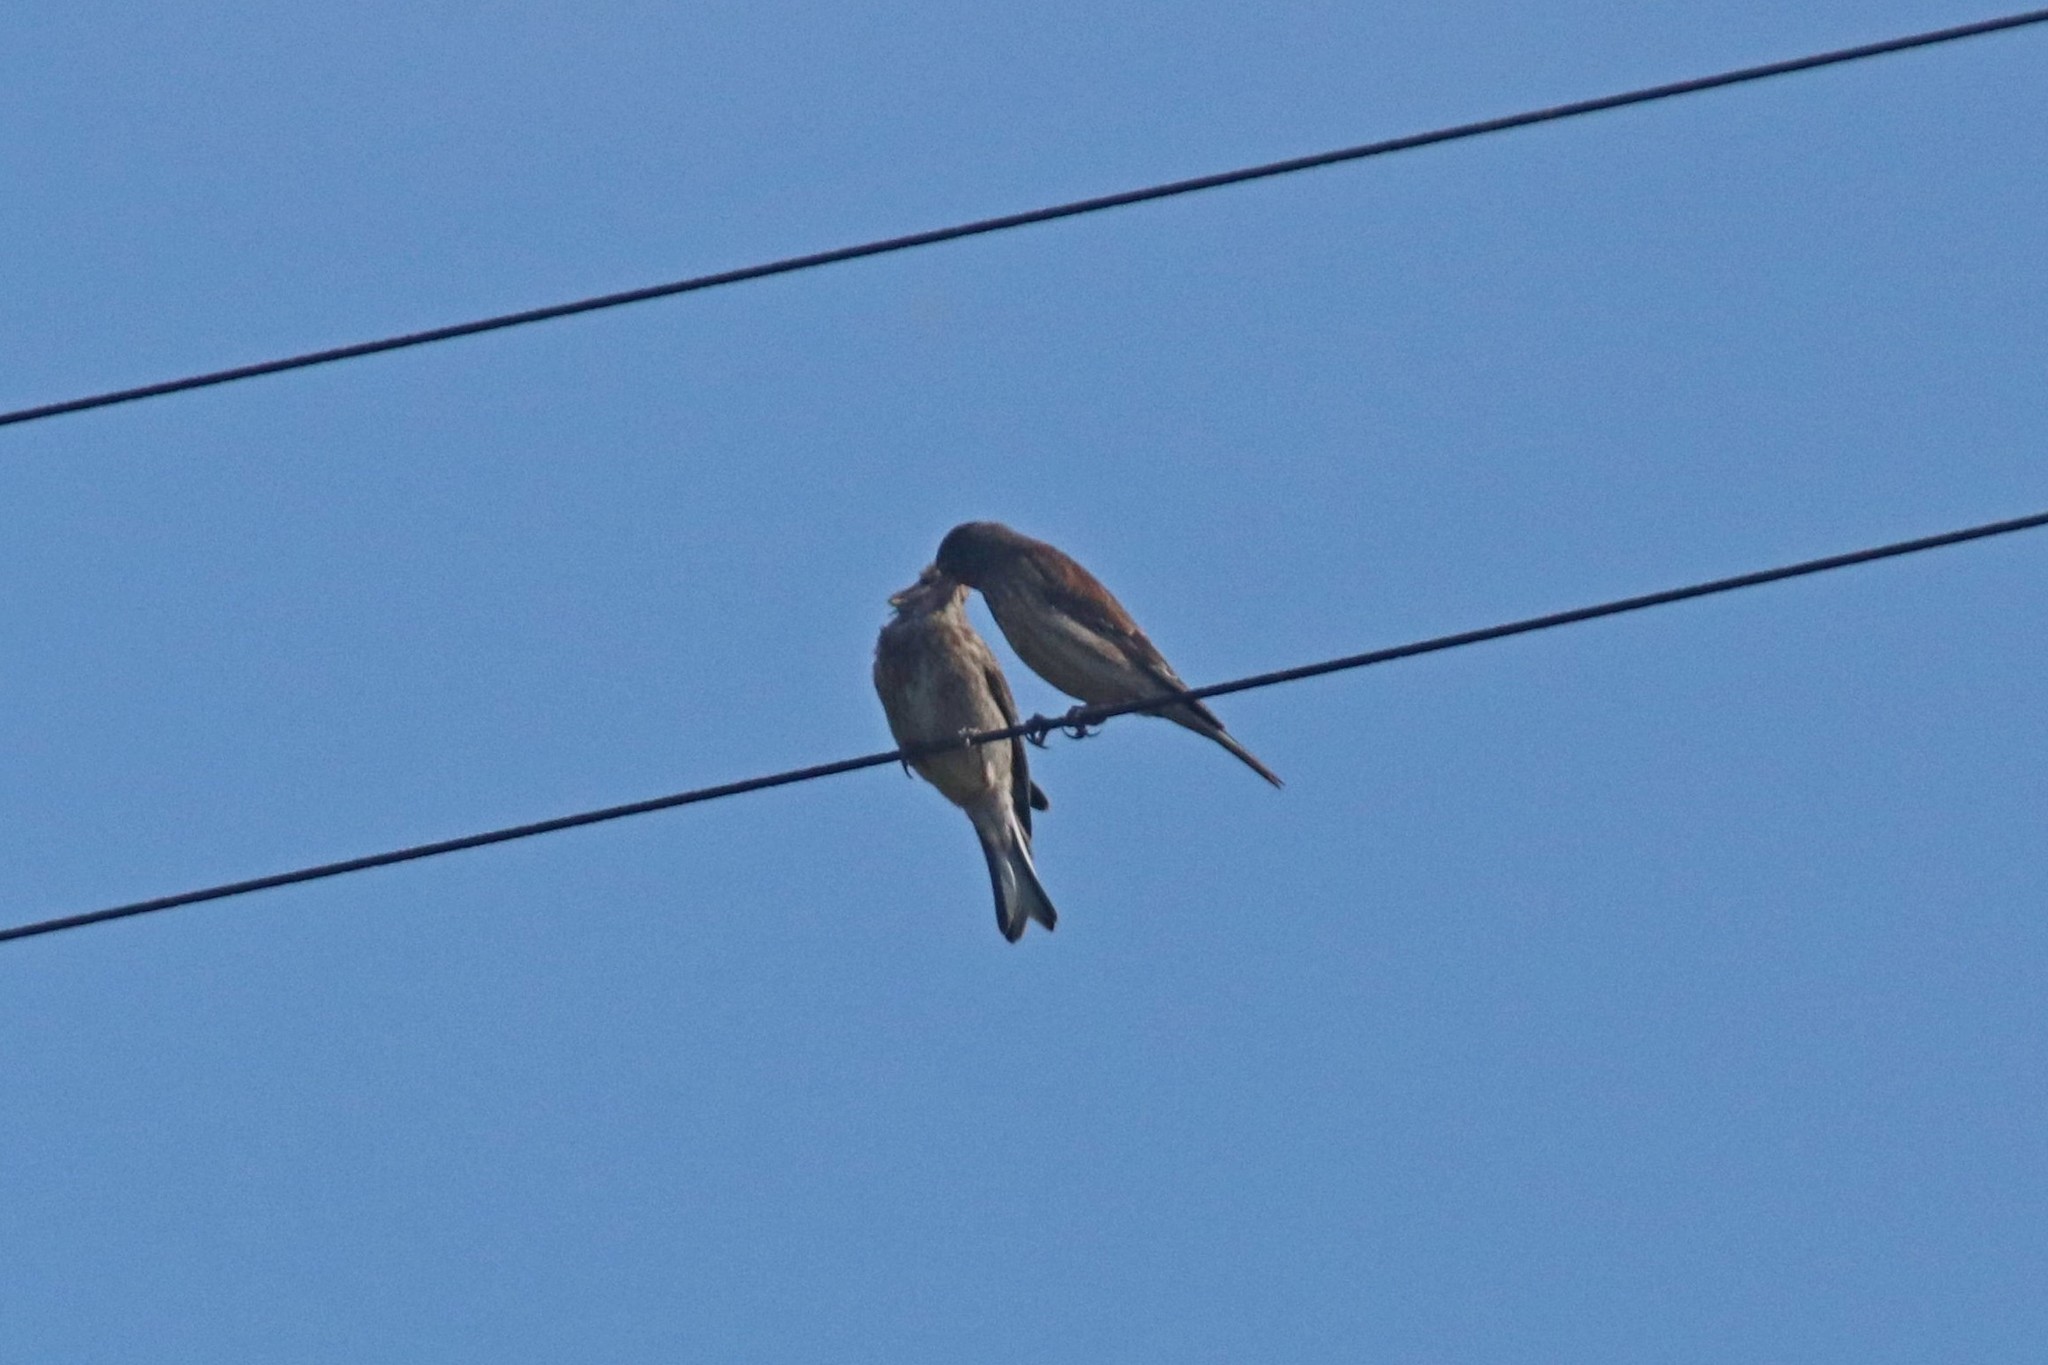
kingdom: Animalia
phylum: Chordata
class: Aves
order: Passeriformes
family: Fringillidae
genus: Linaria
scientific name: Linaria cannabina
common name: Common linnet
